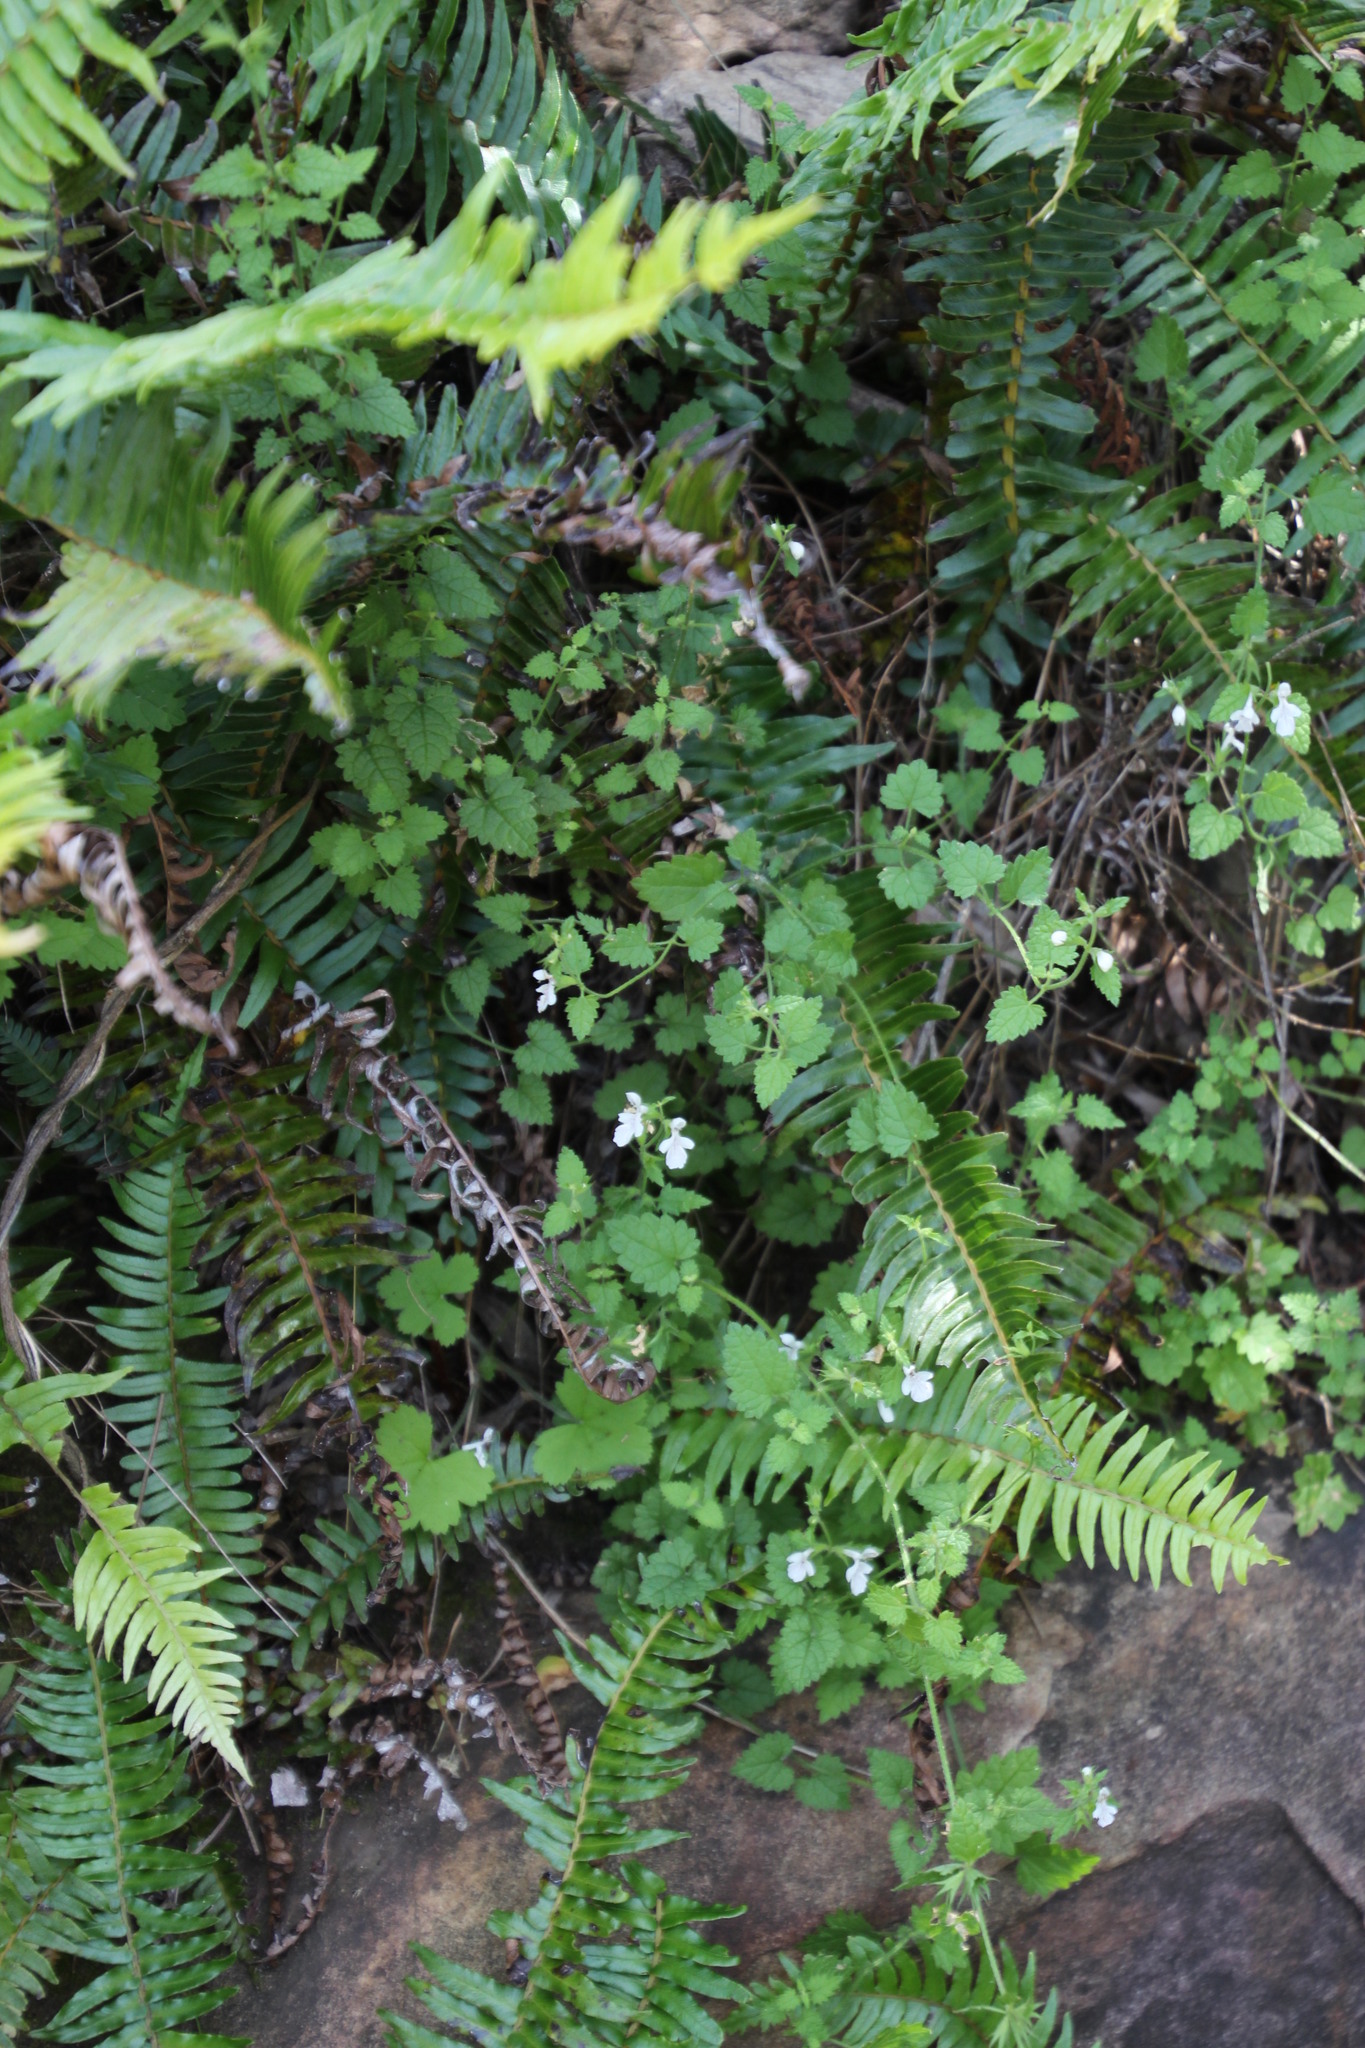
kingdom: Plantae
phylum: Tracheophyta
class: Magnoliopsida
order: Lamiales
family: Lamiaceae
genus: Stachys
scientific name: Stachys aethiopica
